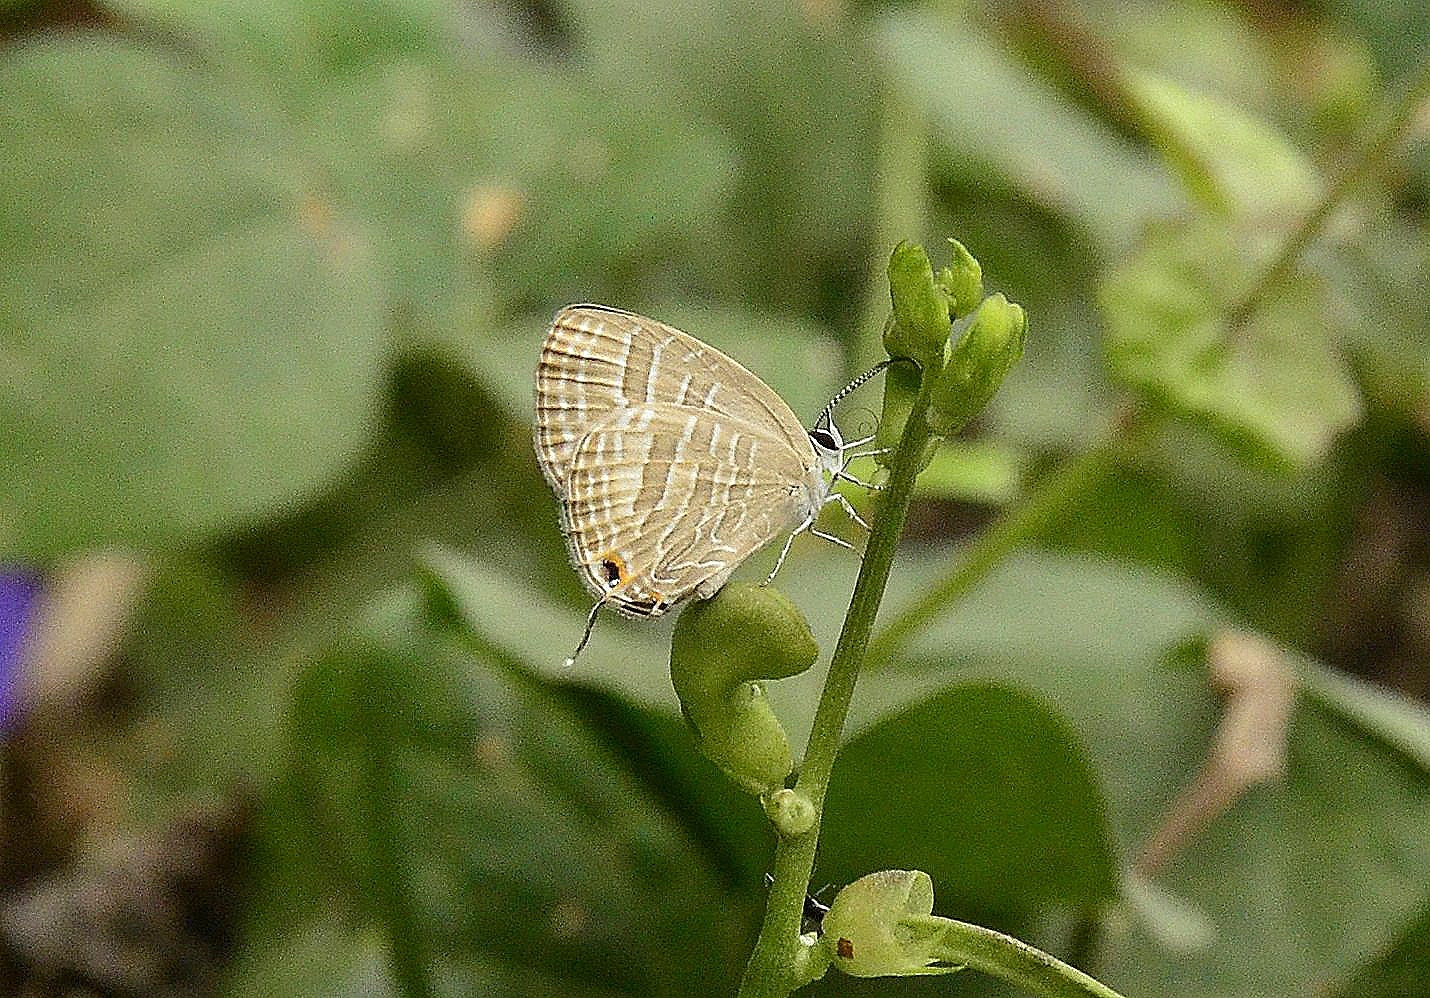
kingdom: Animalia
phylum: Arthropoda
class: Insecta
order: Lepidoptera
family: Lycaenidae
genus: Jamides
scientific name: Jamides celeno
